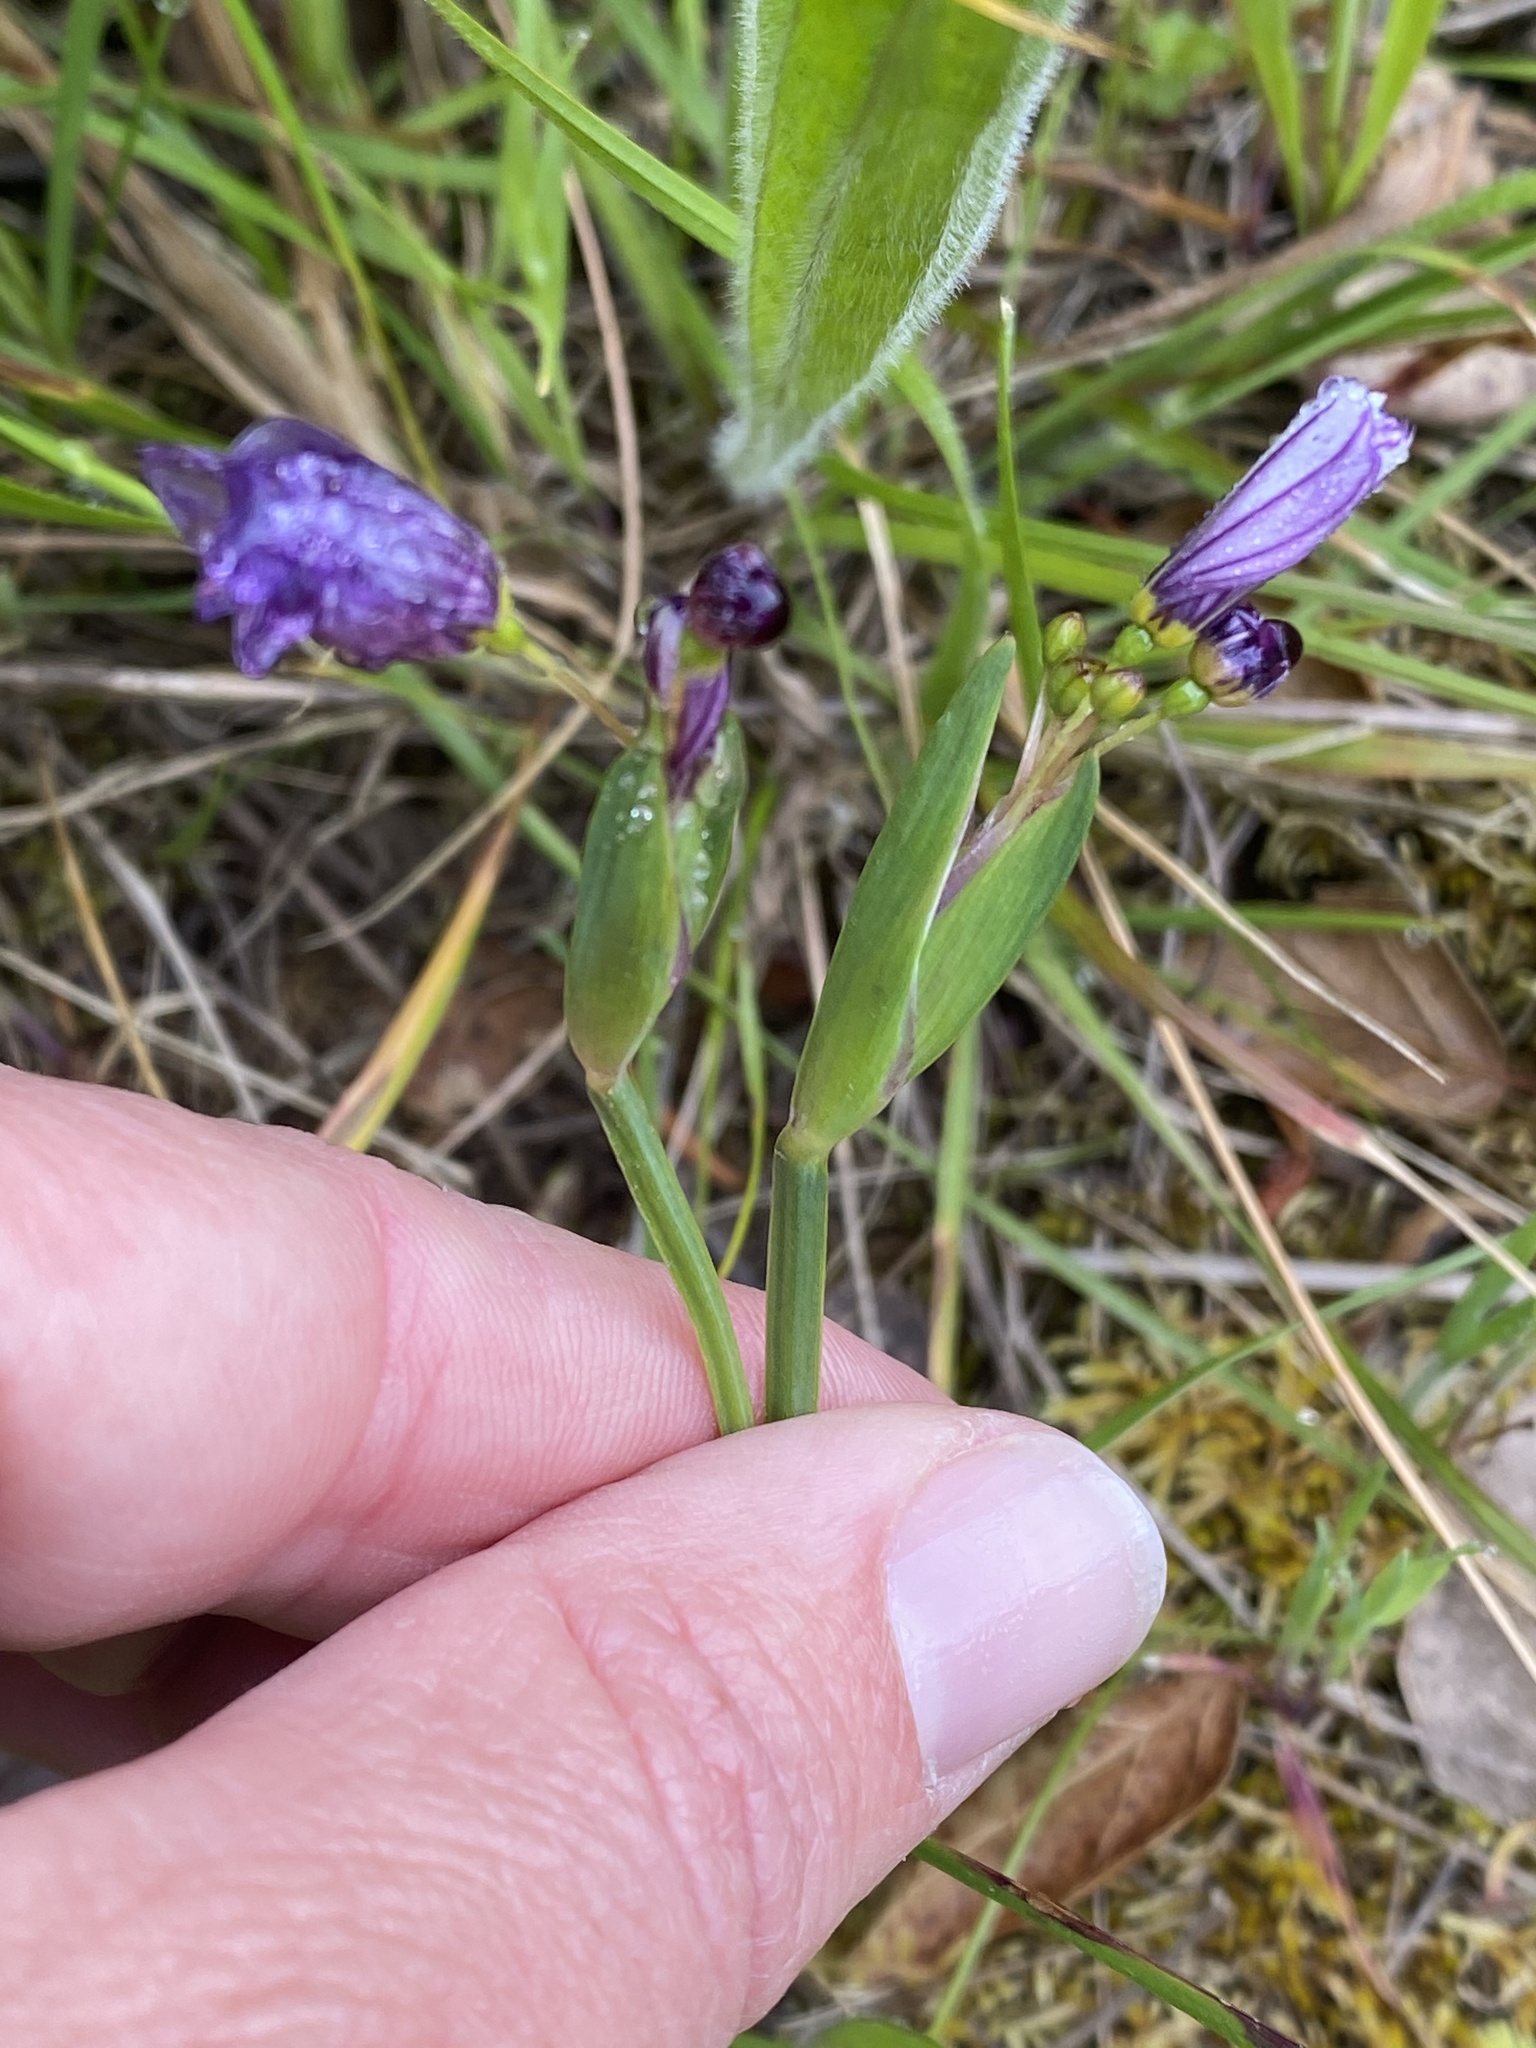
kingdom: Plantae
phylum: Tracheophyta
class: Liliopsida
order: Asparagales
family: Iridaceae
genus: Sisyrinchium
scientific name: Sisyrinchium bellum
